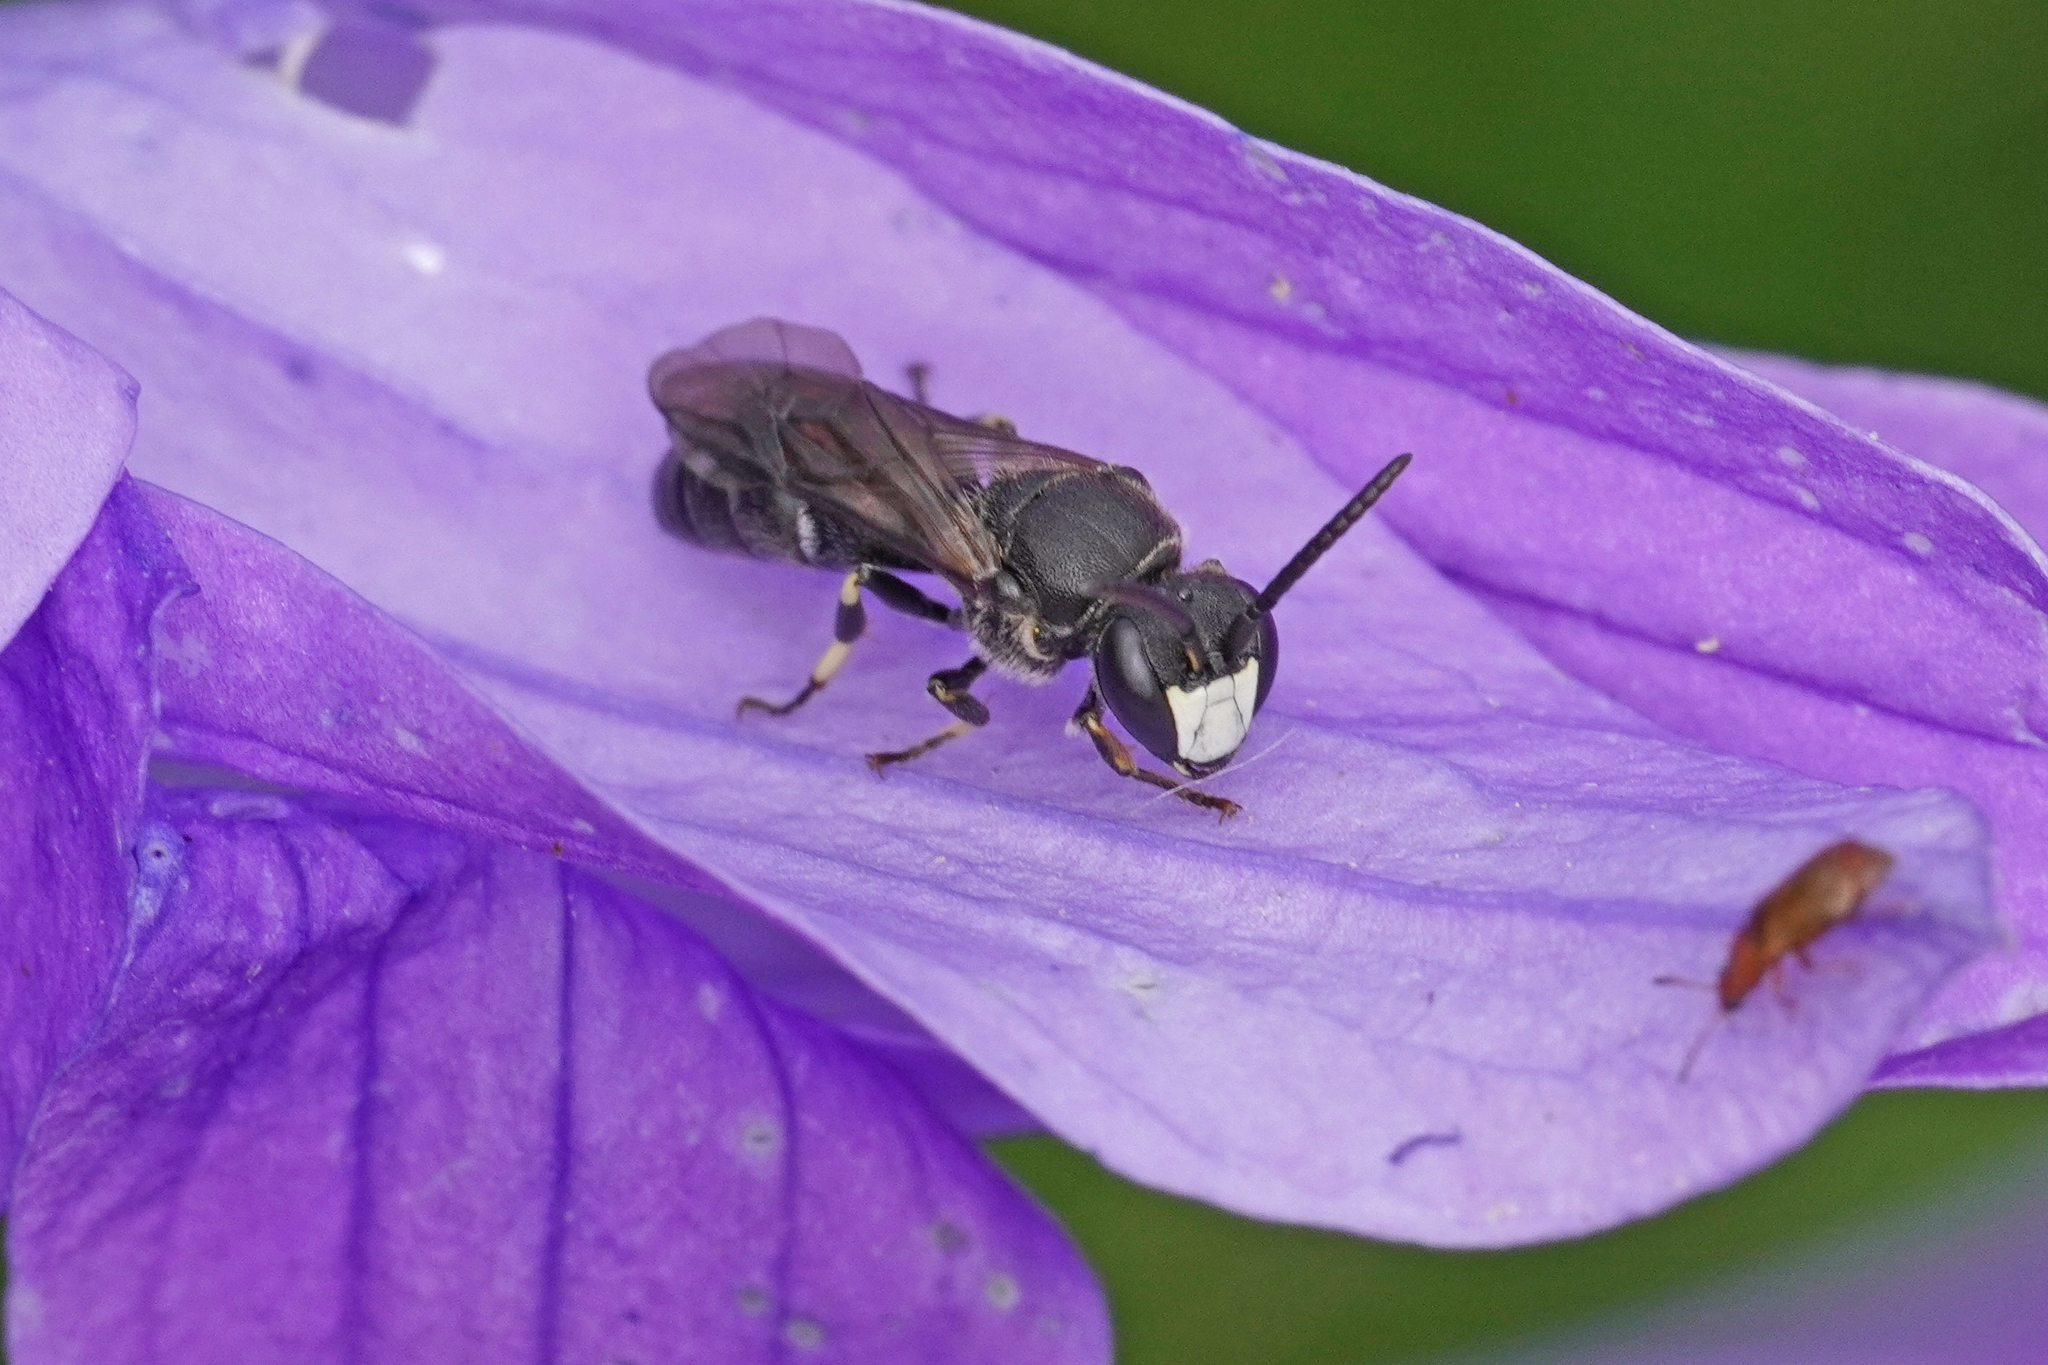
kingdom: Animalia
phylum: Arthropoda
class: Insecta
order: Hymenoptera
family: Colletidae
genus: Hylaeus
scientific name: Hylaeus confusus
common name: White-jawed yellow-face bee
